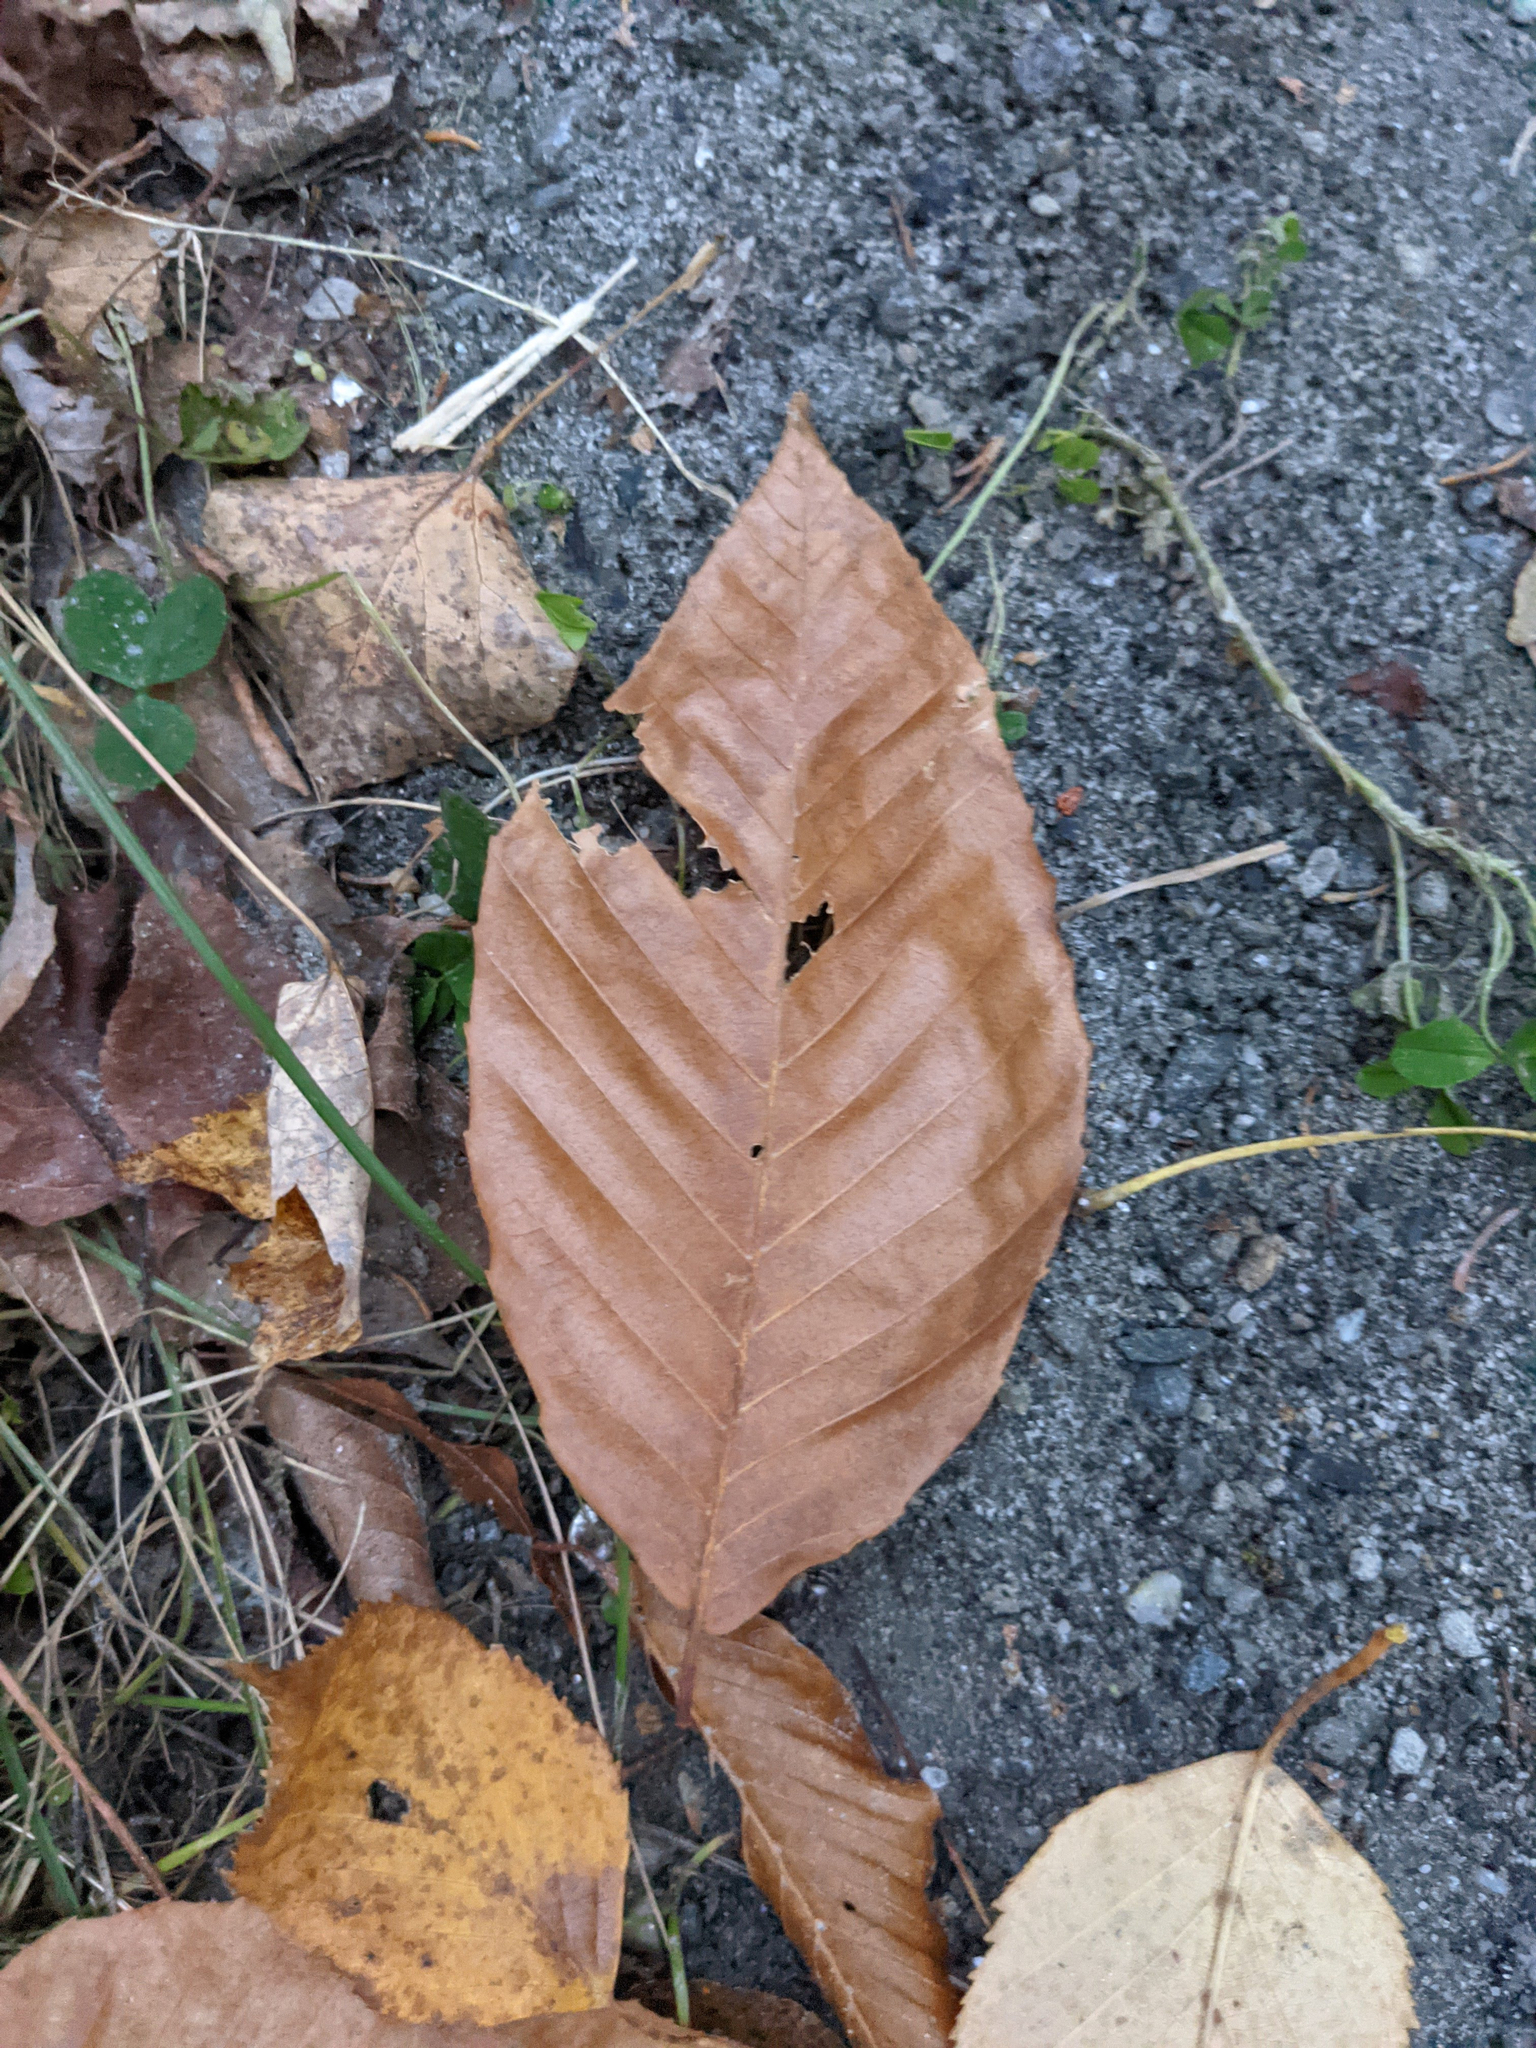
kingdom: Plantae
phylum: Tracheophyta
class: Magnoliopsida
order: Fagales
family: Fagaceae
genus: Fagus
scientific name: Fagus grandifolia
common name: American beech
